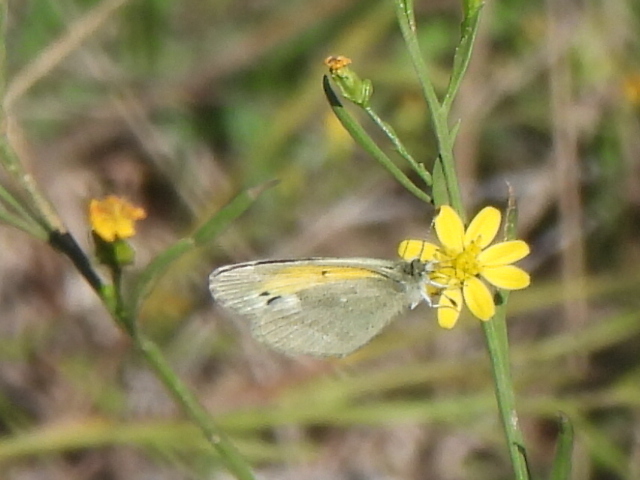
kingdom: Animalia
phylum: Arthropoda
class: Insecta
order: Lepidoptera
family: Pieridae
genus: Nathalis
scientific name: Nathalis iole
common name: Dainty sulphur
